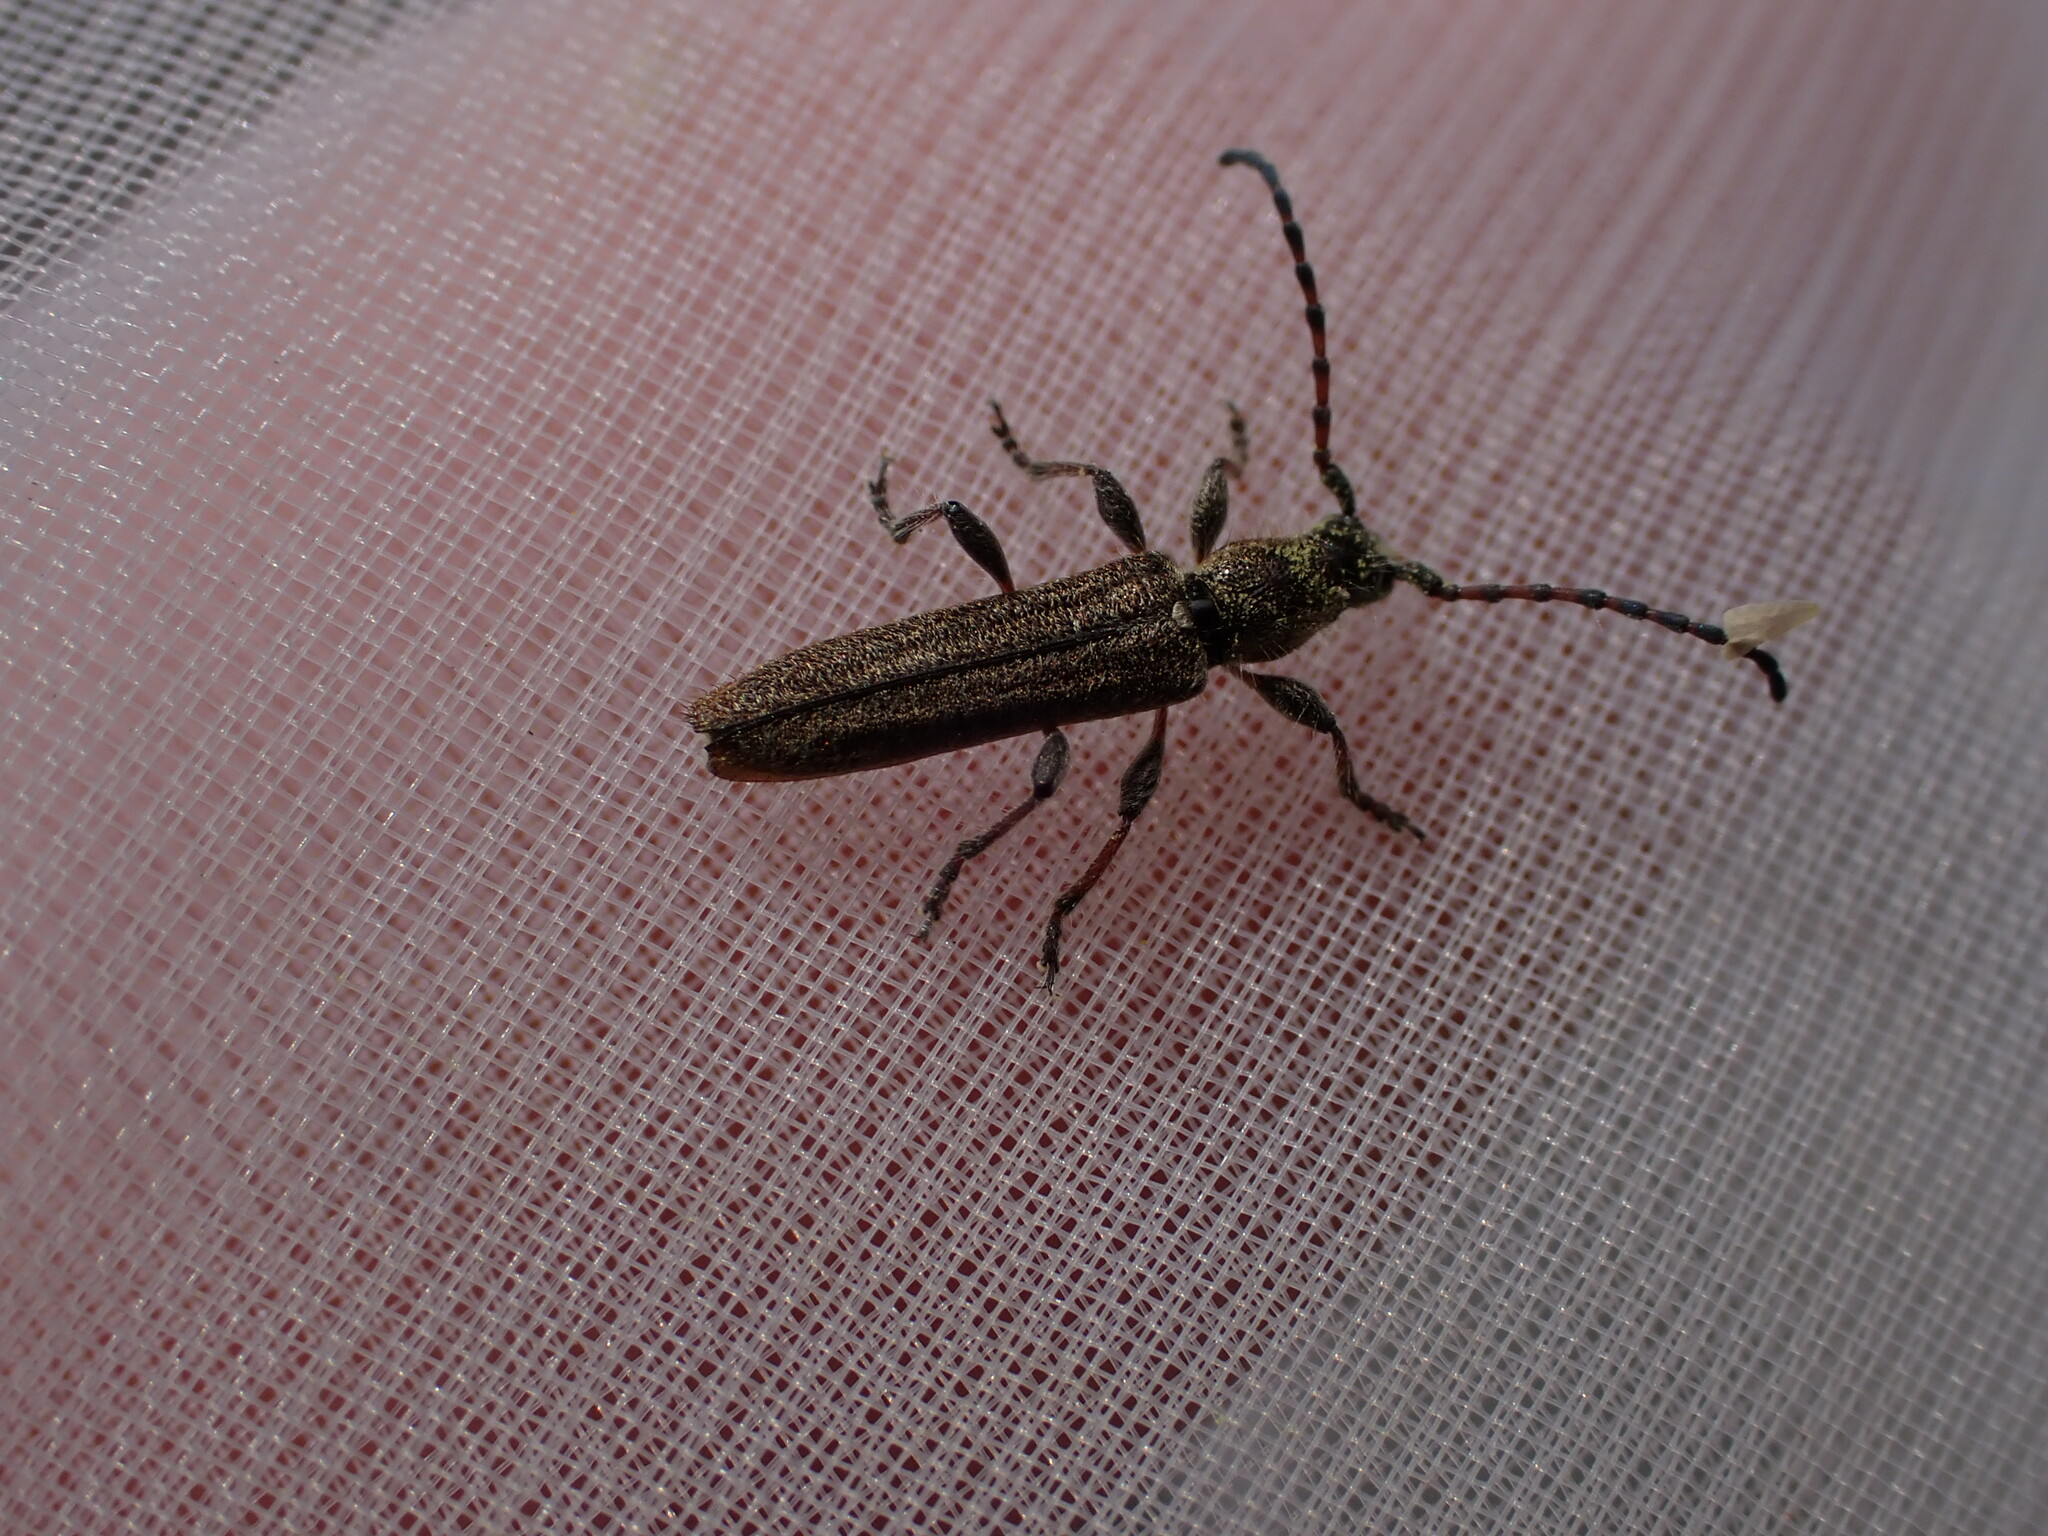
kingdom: Animalia
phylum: Arthropoda
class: Insecta
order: Coleoptera
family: Cerambycidae
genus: Deilus
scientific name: Deilus fugax
